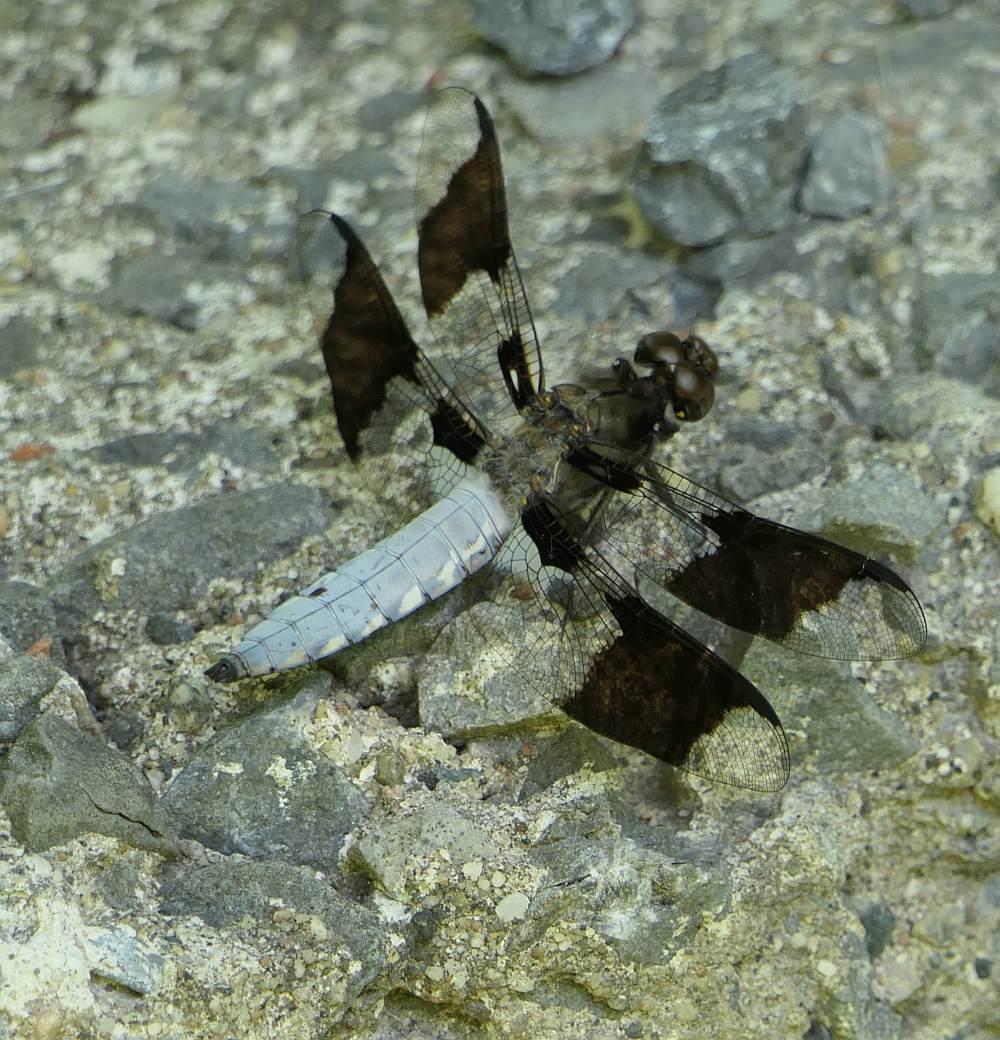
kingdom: Animalia
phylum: Arthropoda
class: Insecta
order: Odonata
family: Libellulidae
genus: Plathemis
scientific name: Plathemis lydia
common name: Common whitetail
